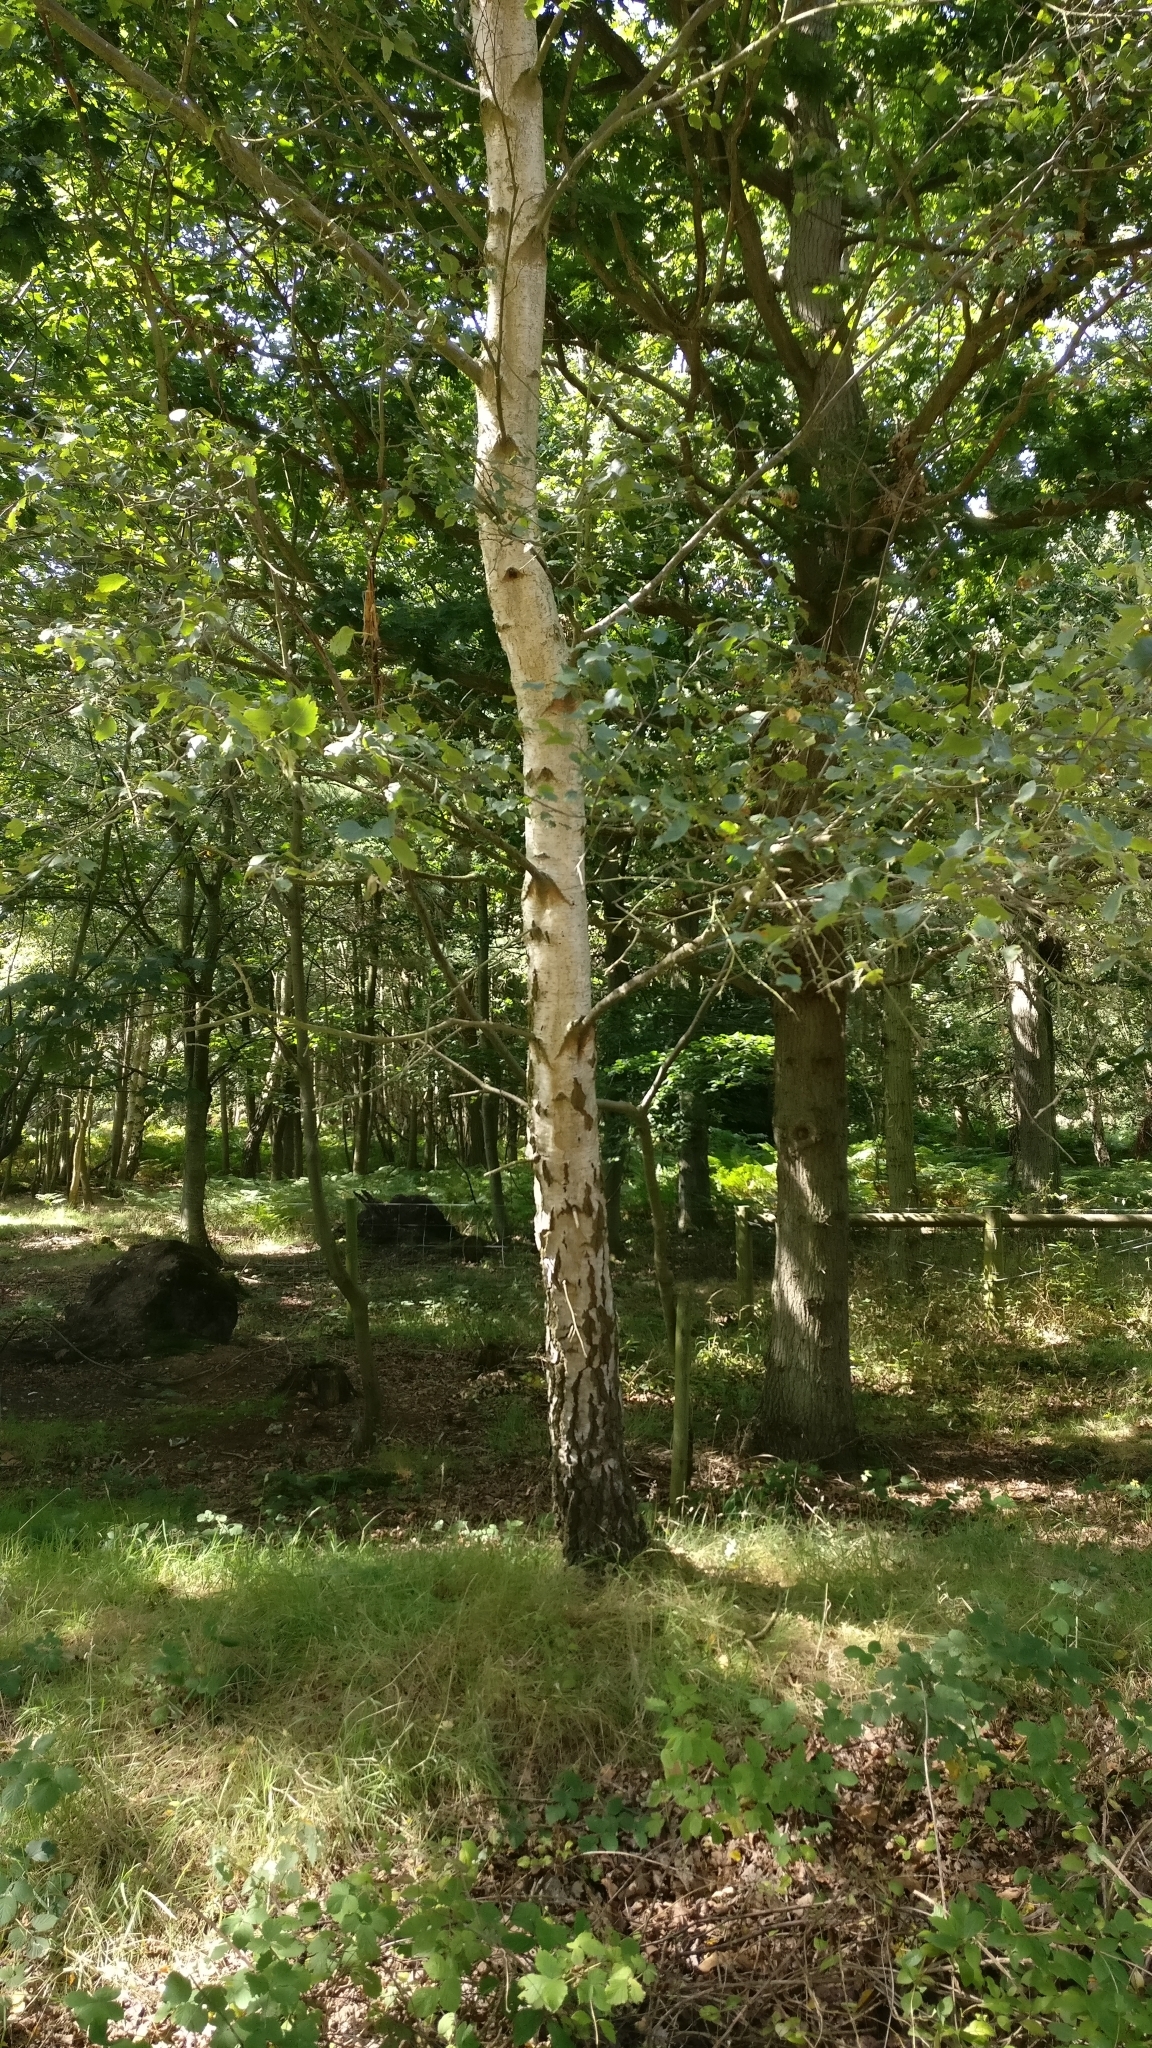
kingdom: Plantae
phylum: Tracheophyta
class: Magnoliopsida
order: Fagales
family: Betulaceae
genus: Betula
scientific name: Betula pendula
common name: Silver birch
